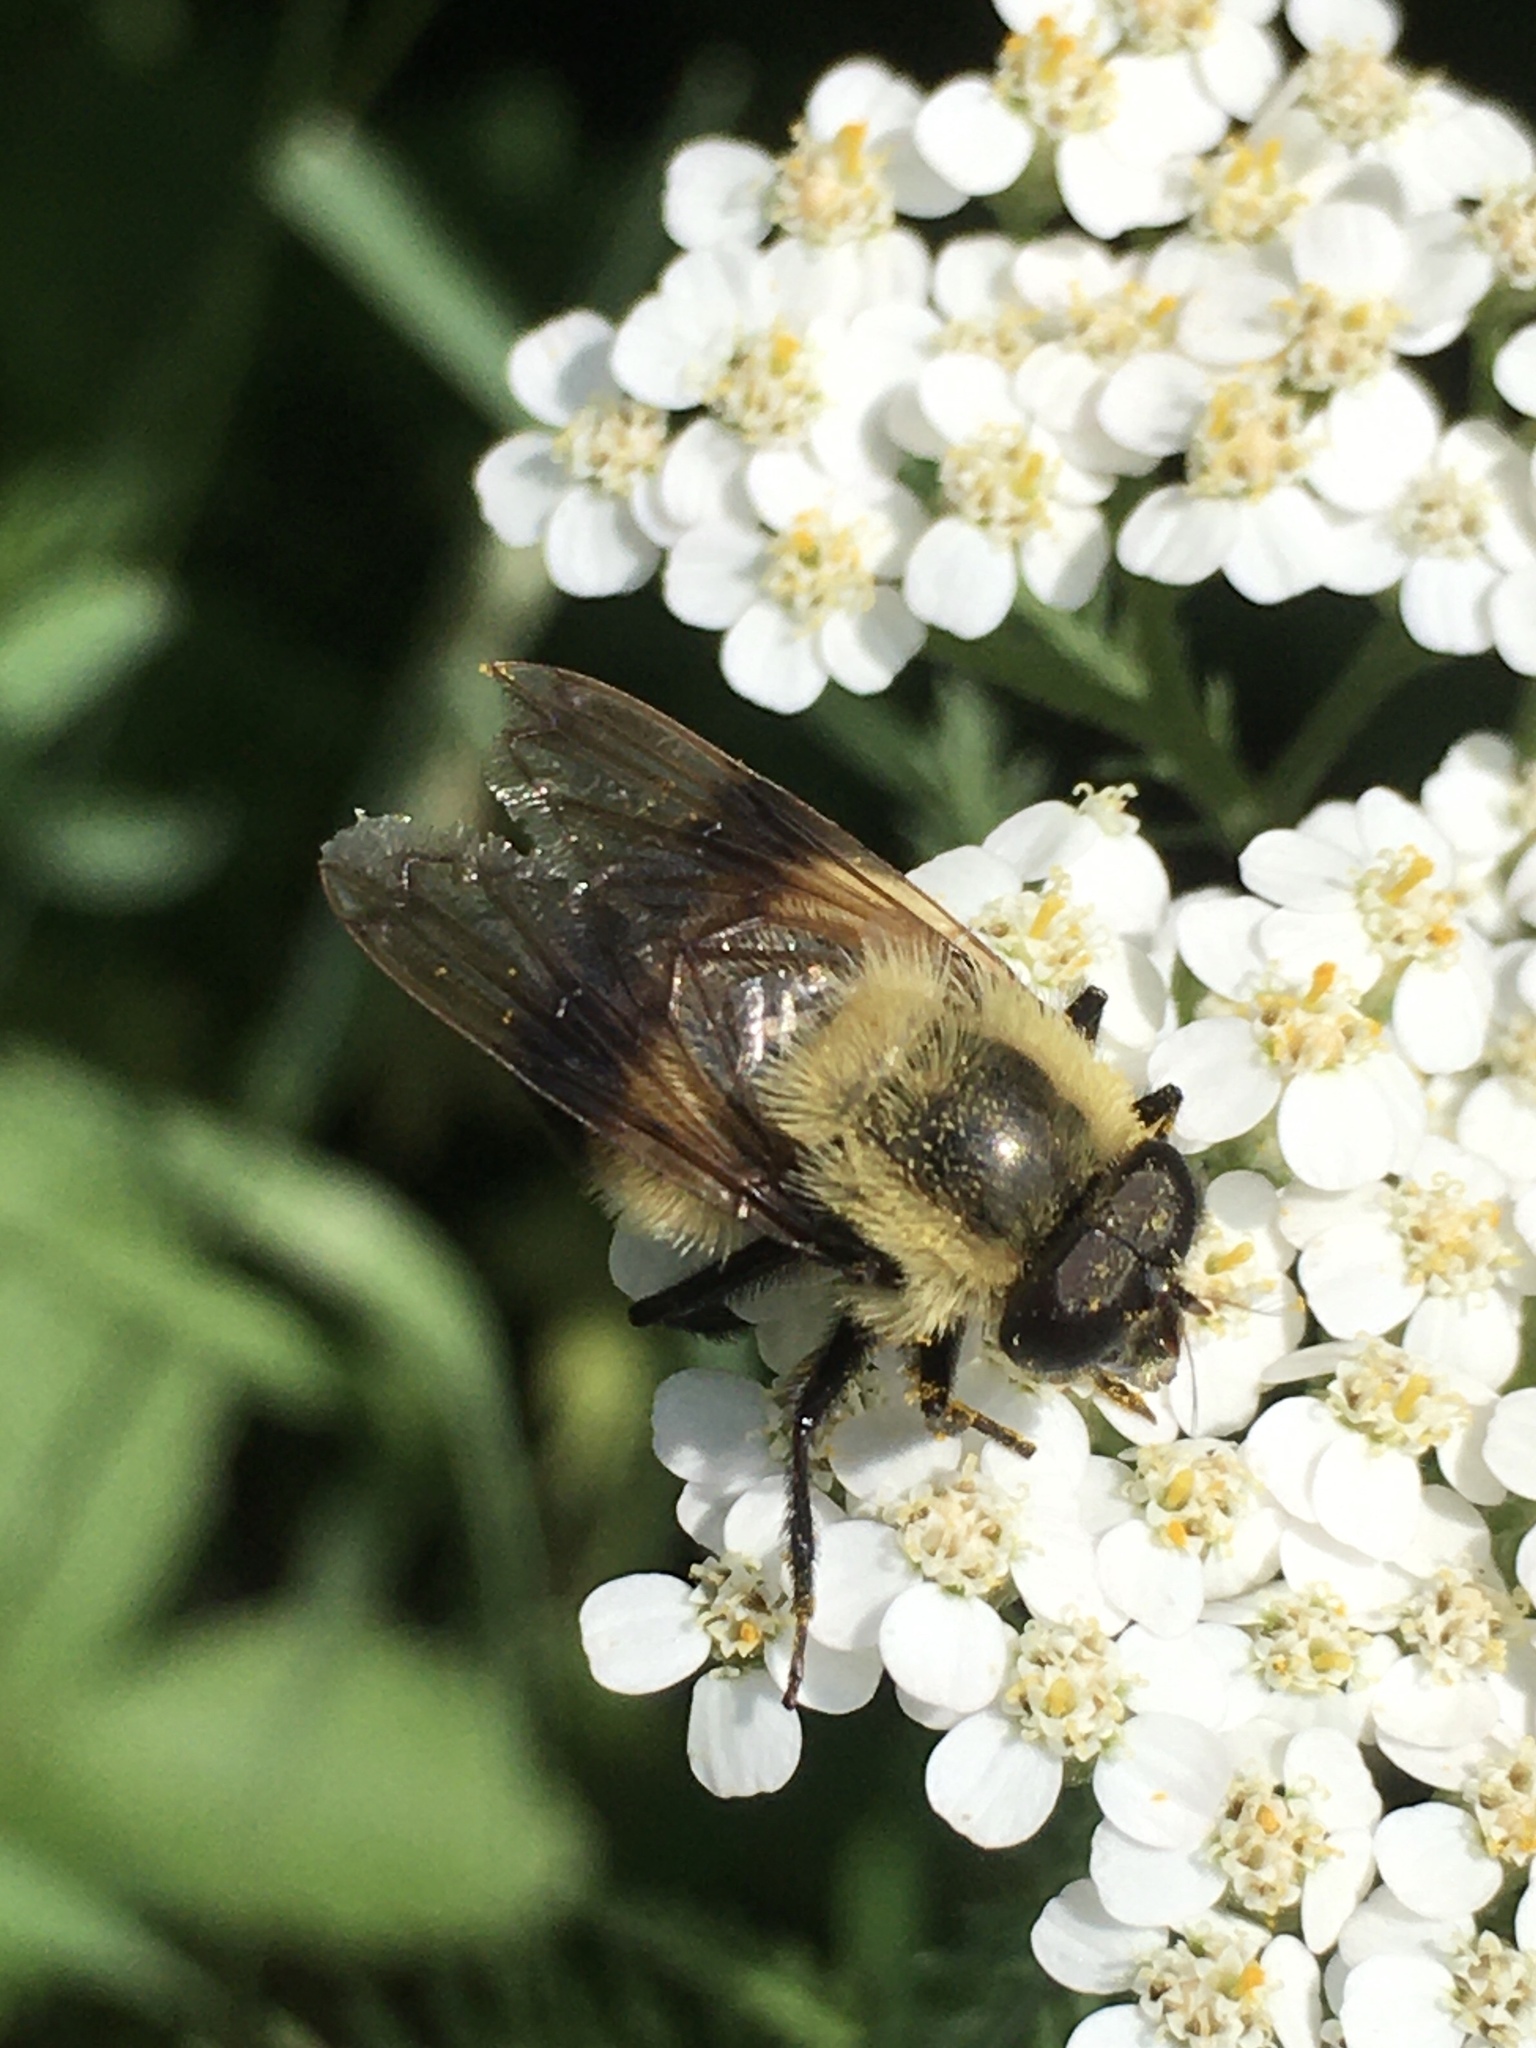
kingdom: Animalia
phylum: Arthropoda
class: Insecta
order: Diptera
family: Syrphidae
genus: Volucella
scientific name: Volucella evecta
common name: Eastern swiftwing
